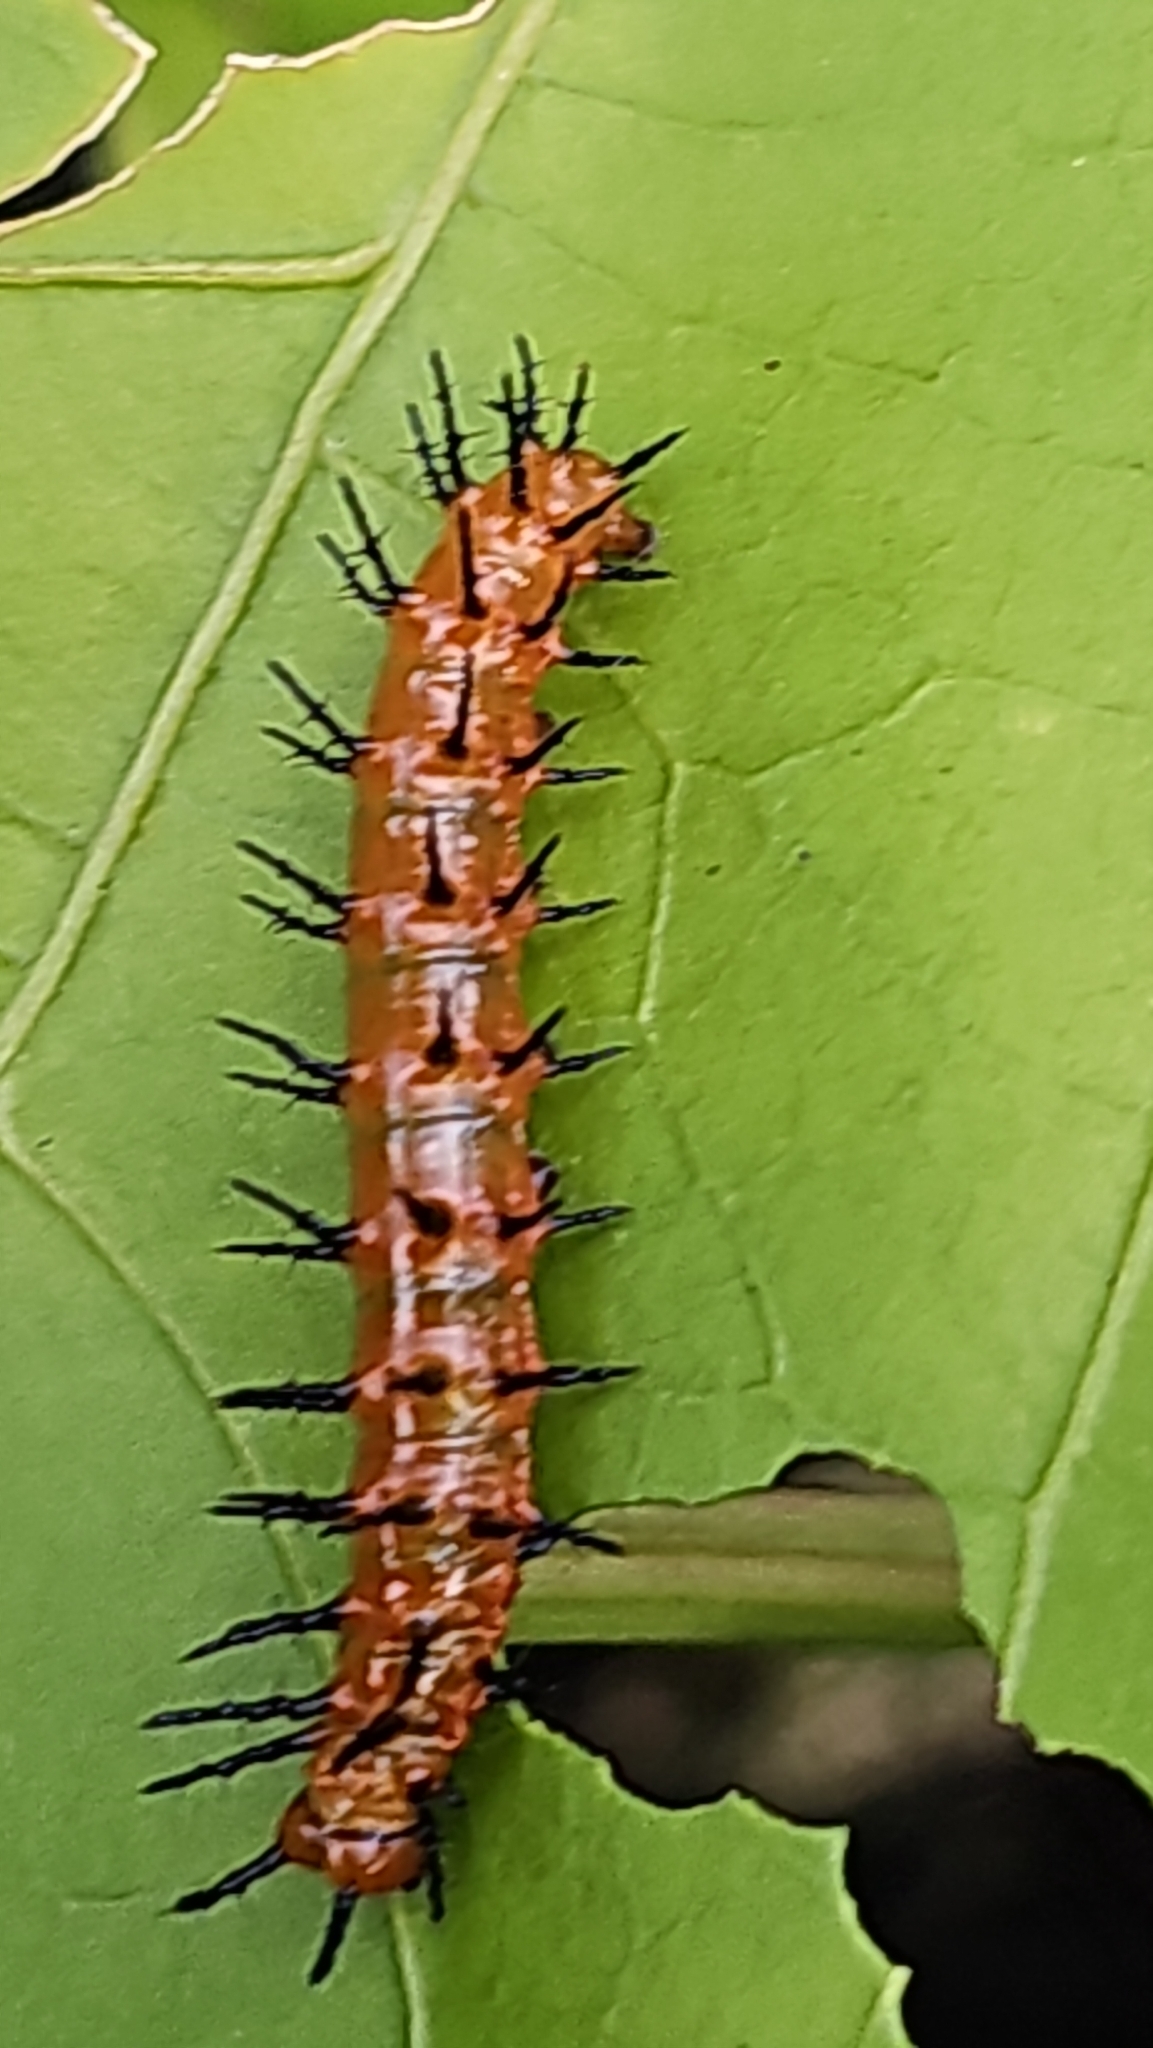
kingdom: Animalia
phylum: Arthropoda
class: Insecta
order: Lepidoptera
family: Nymphalidae
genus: Dione
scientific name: Dione vanillae
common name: Gulf fritillary
